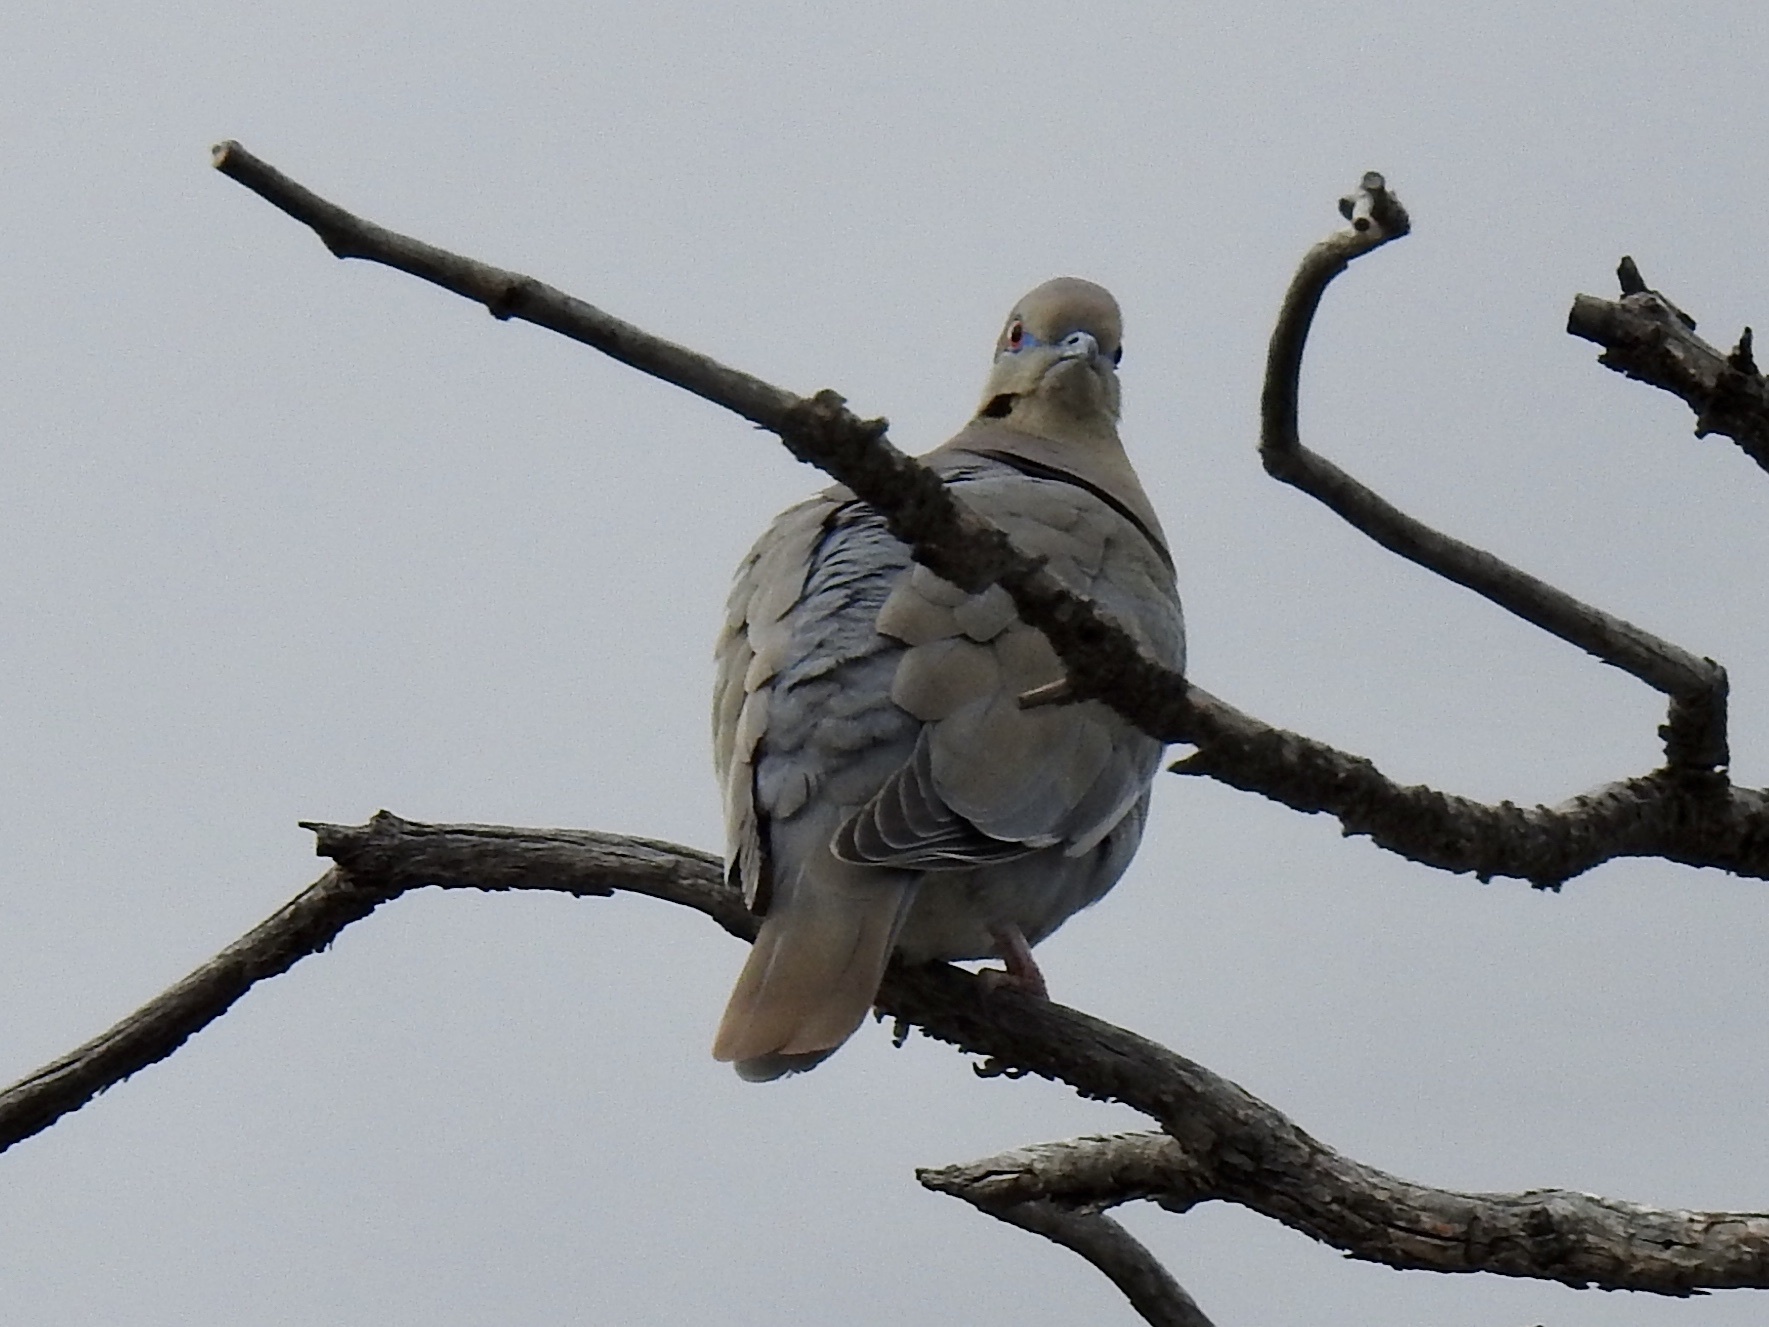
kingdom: Animalia
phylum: Chordata
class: Aves
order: Columbiformes
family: Columbidae
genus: Zenaida
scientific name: Zenaida asiatica
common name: White-winged dove
